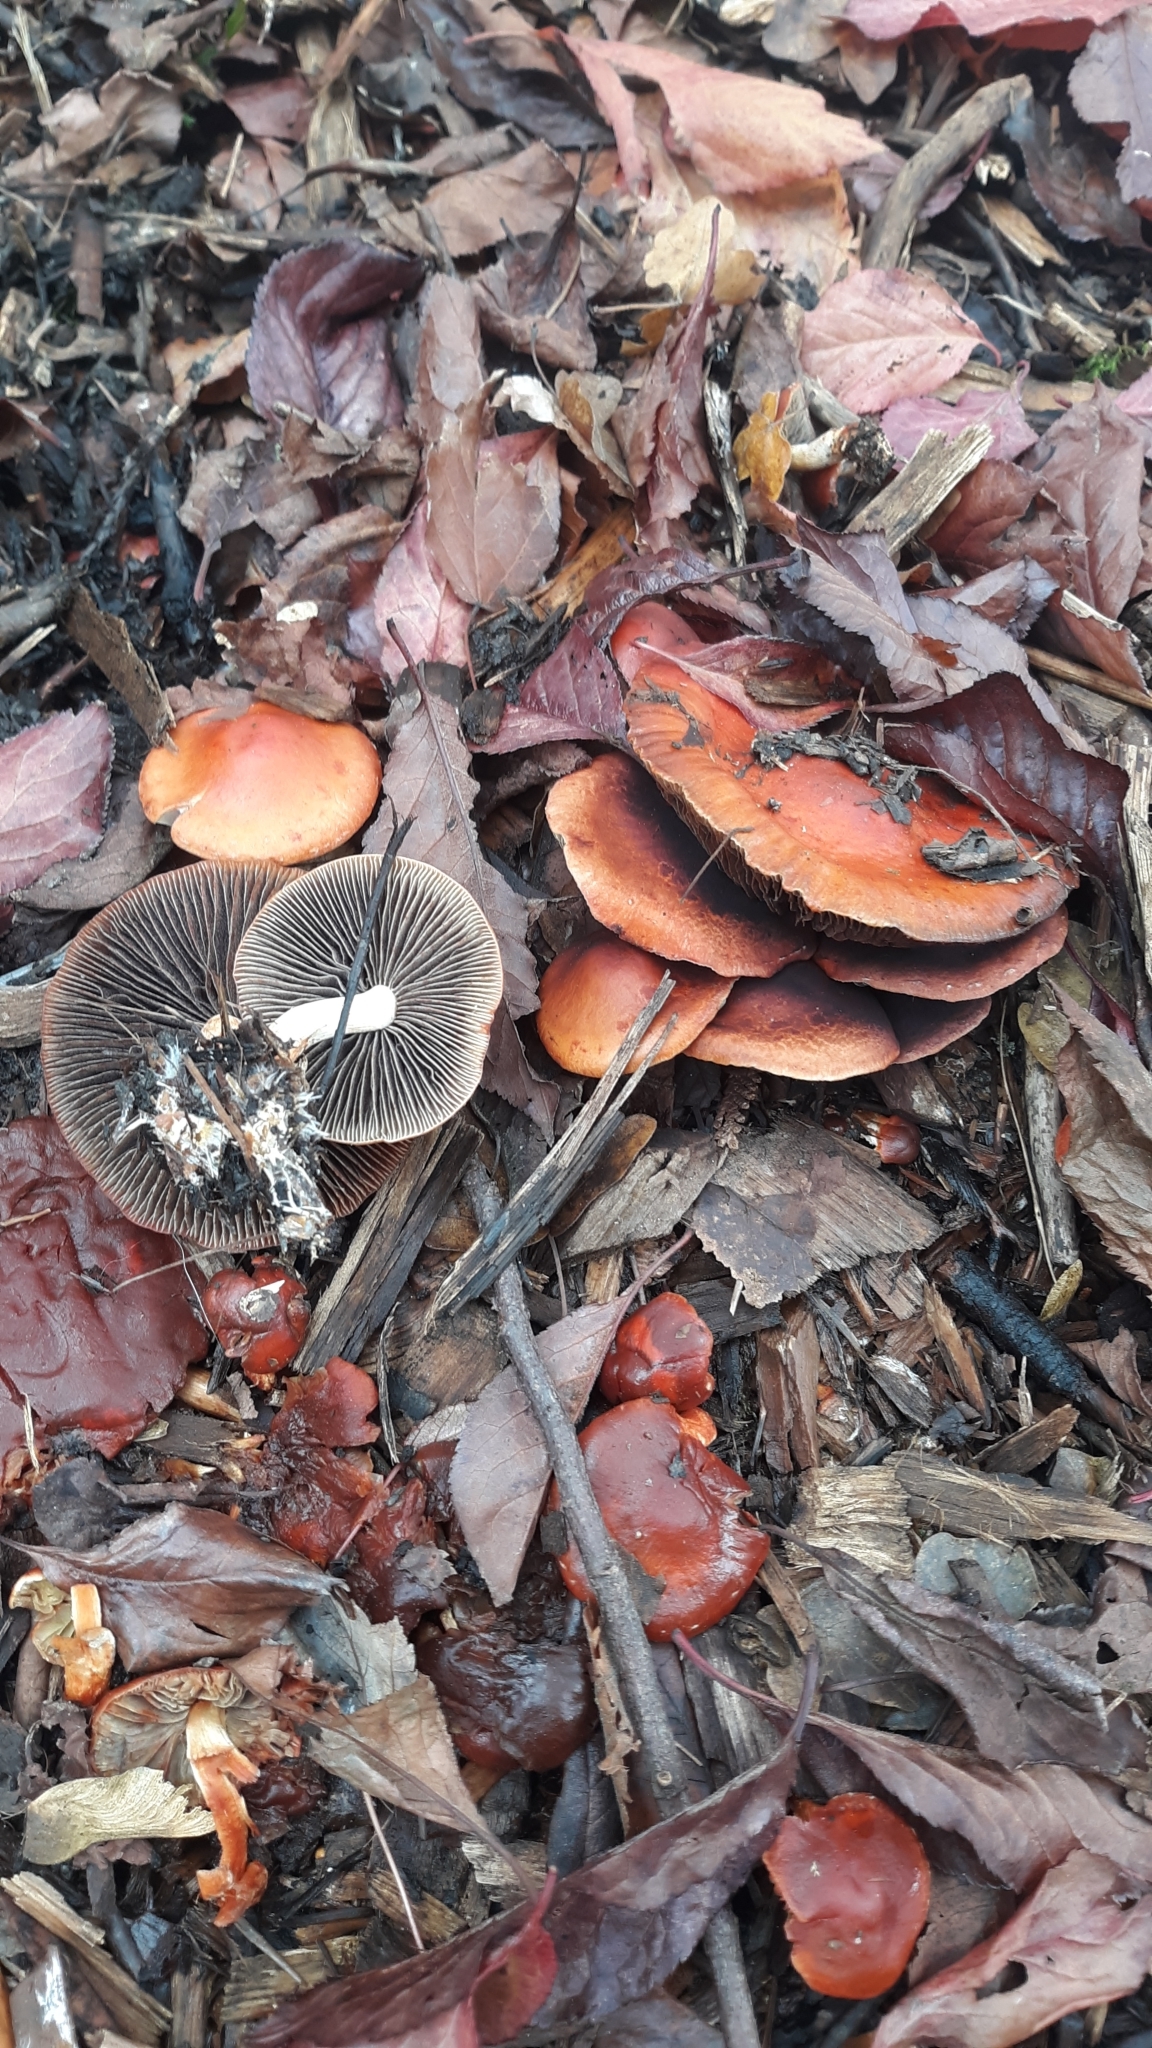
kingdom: Fungi
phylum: Basidiomycota
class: Agaricomycetes
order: Agaricales
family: Strophariaceae
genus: Leratiomyces
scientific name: Leratiomyces ceres
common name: Redlead roundhead
